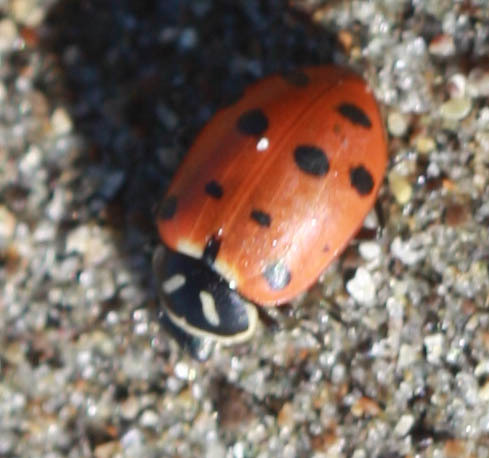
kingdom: Animalia
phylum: Arthropoda
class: Insecta
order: Coleoptera
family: Coccinellidae
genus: Hippodamia
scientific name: Hippodamia convergens
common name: Convergent lady beetle
